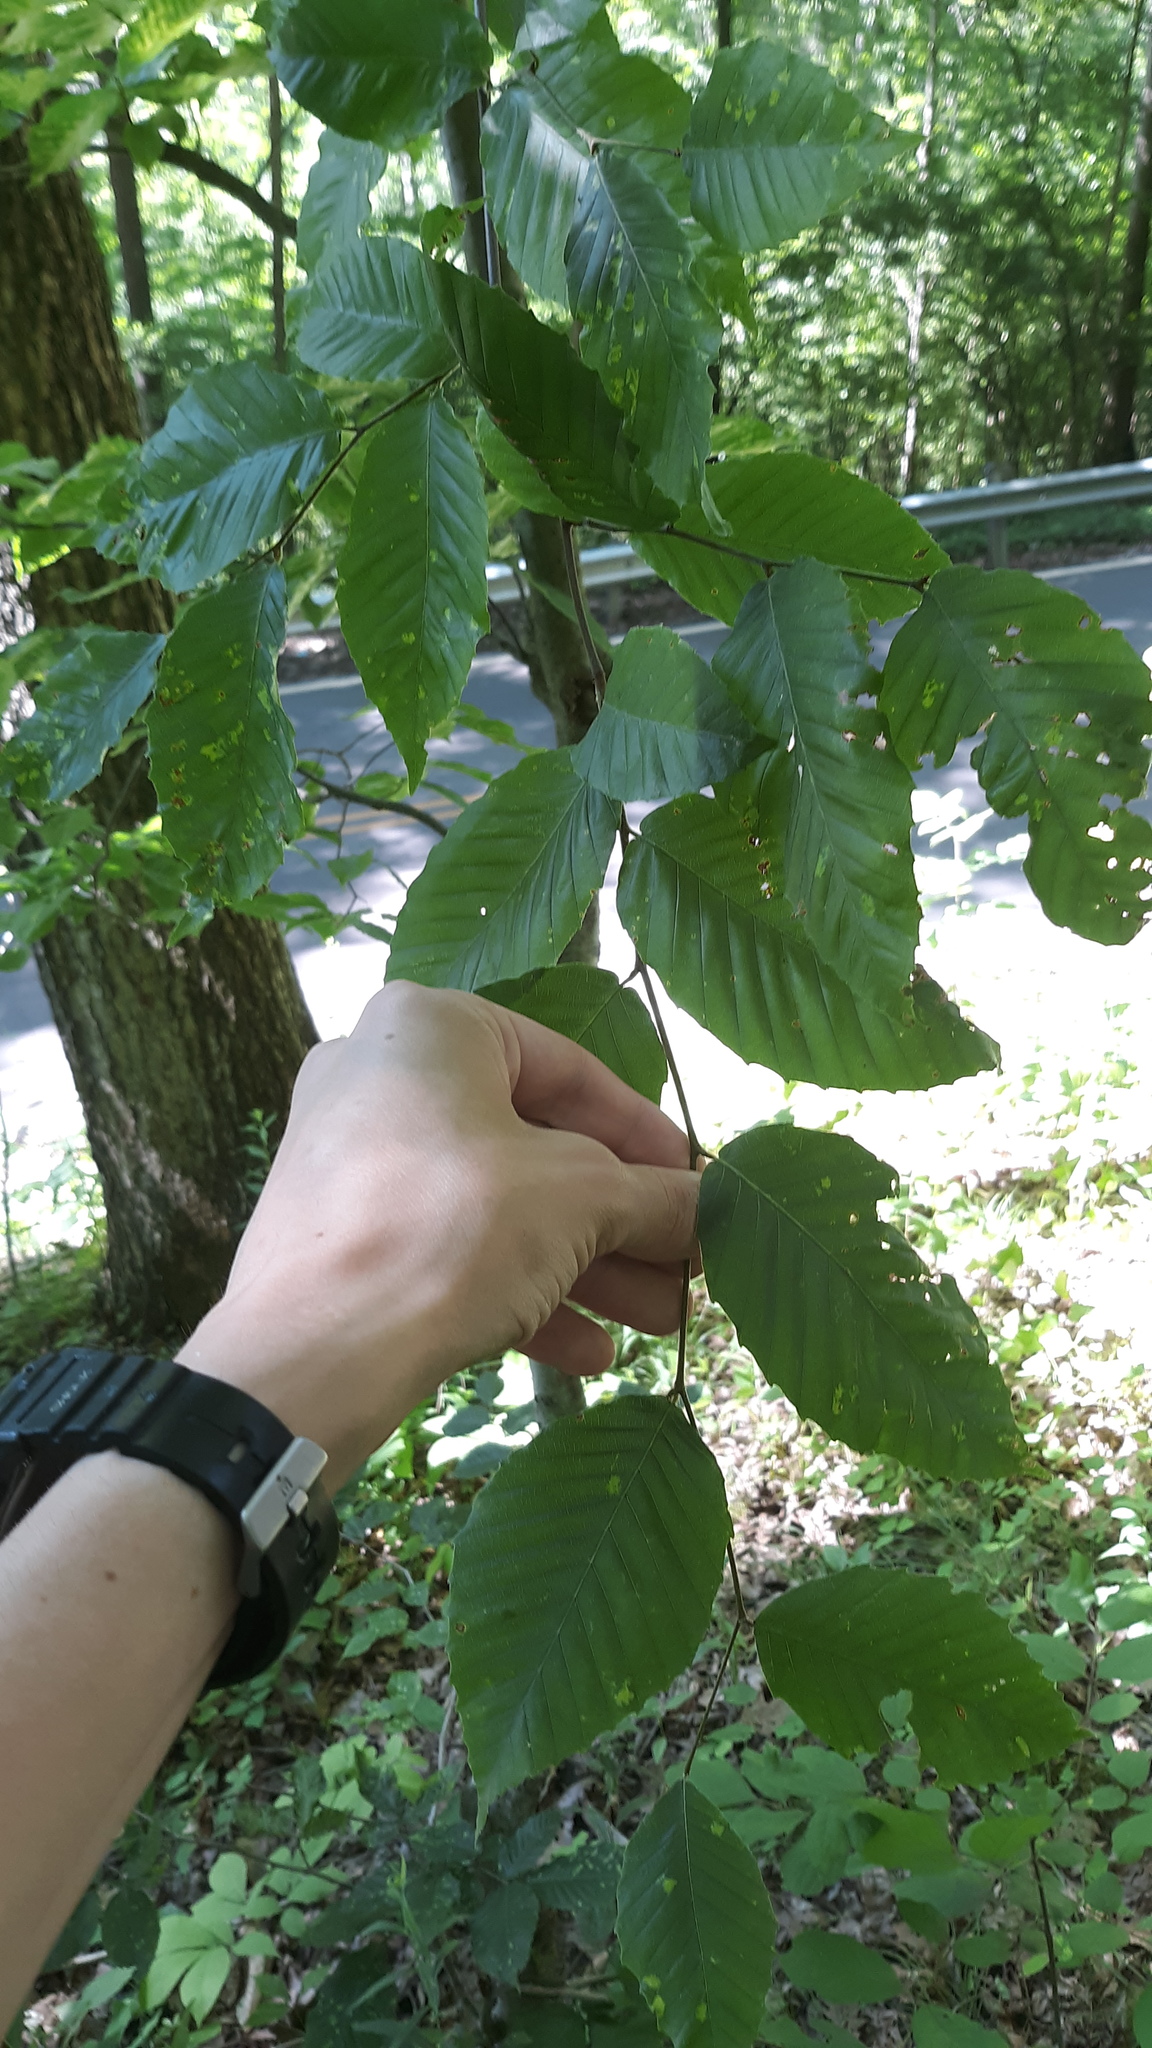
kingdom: Plantae
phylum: Tracheophyta
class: Magnoliopsida
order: Fagales
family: Fagaceae
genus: Fagus
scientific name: Fagus grandifolia
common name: American beech
